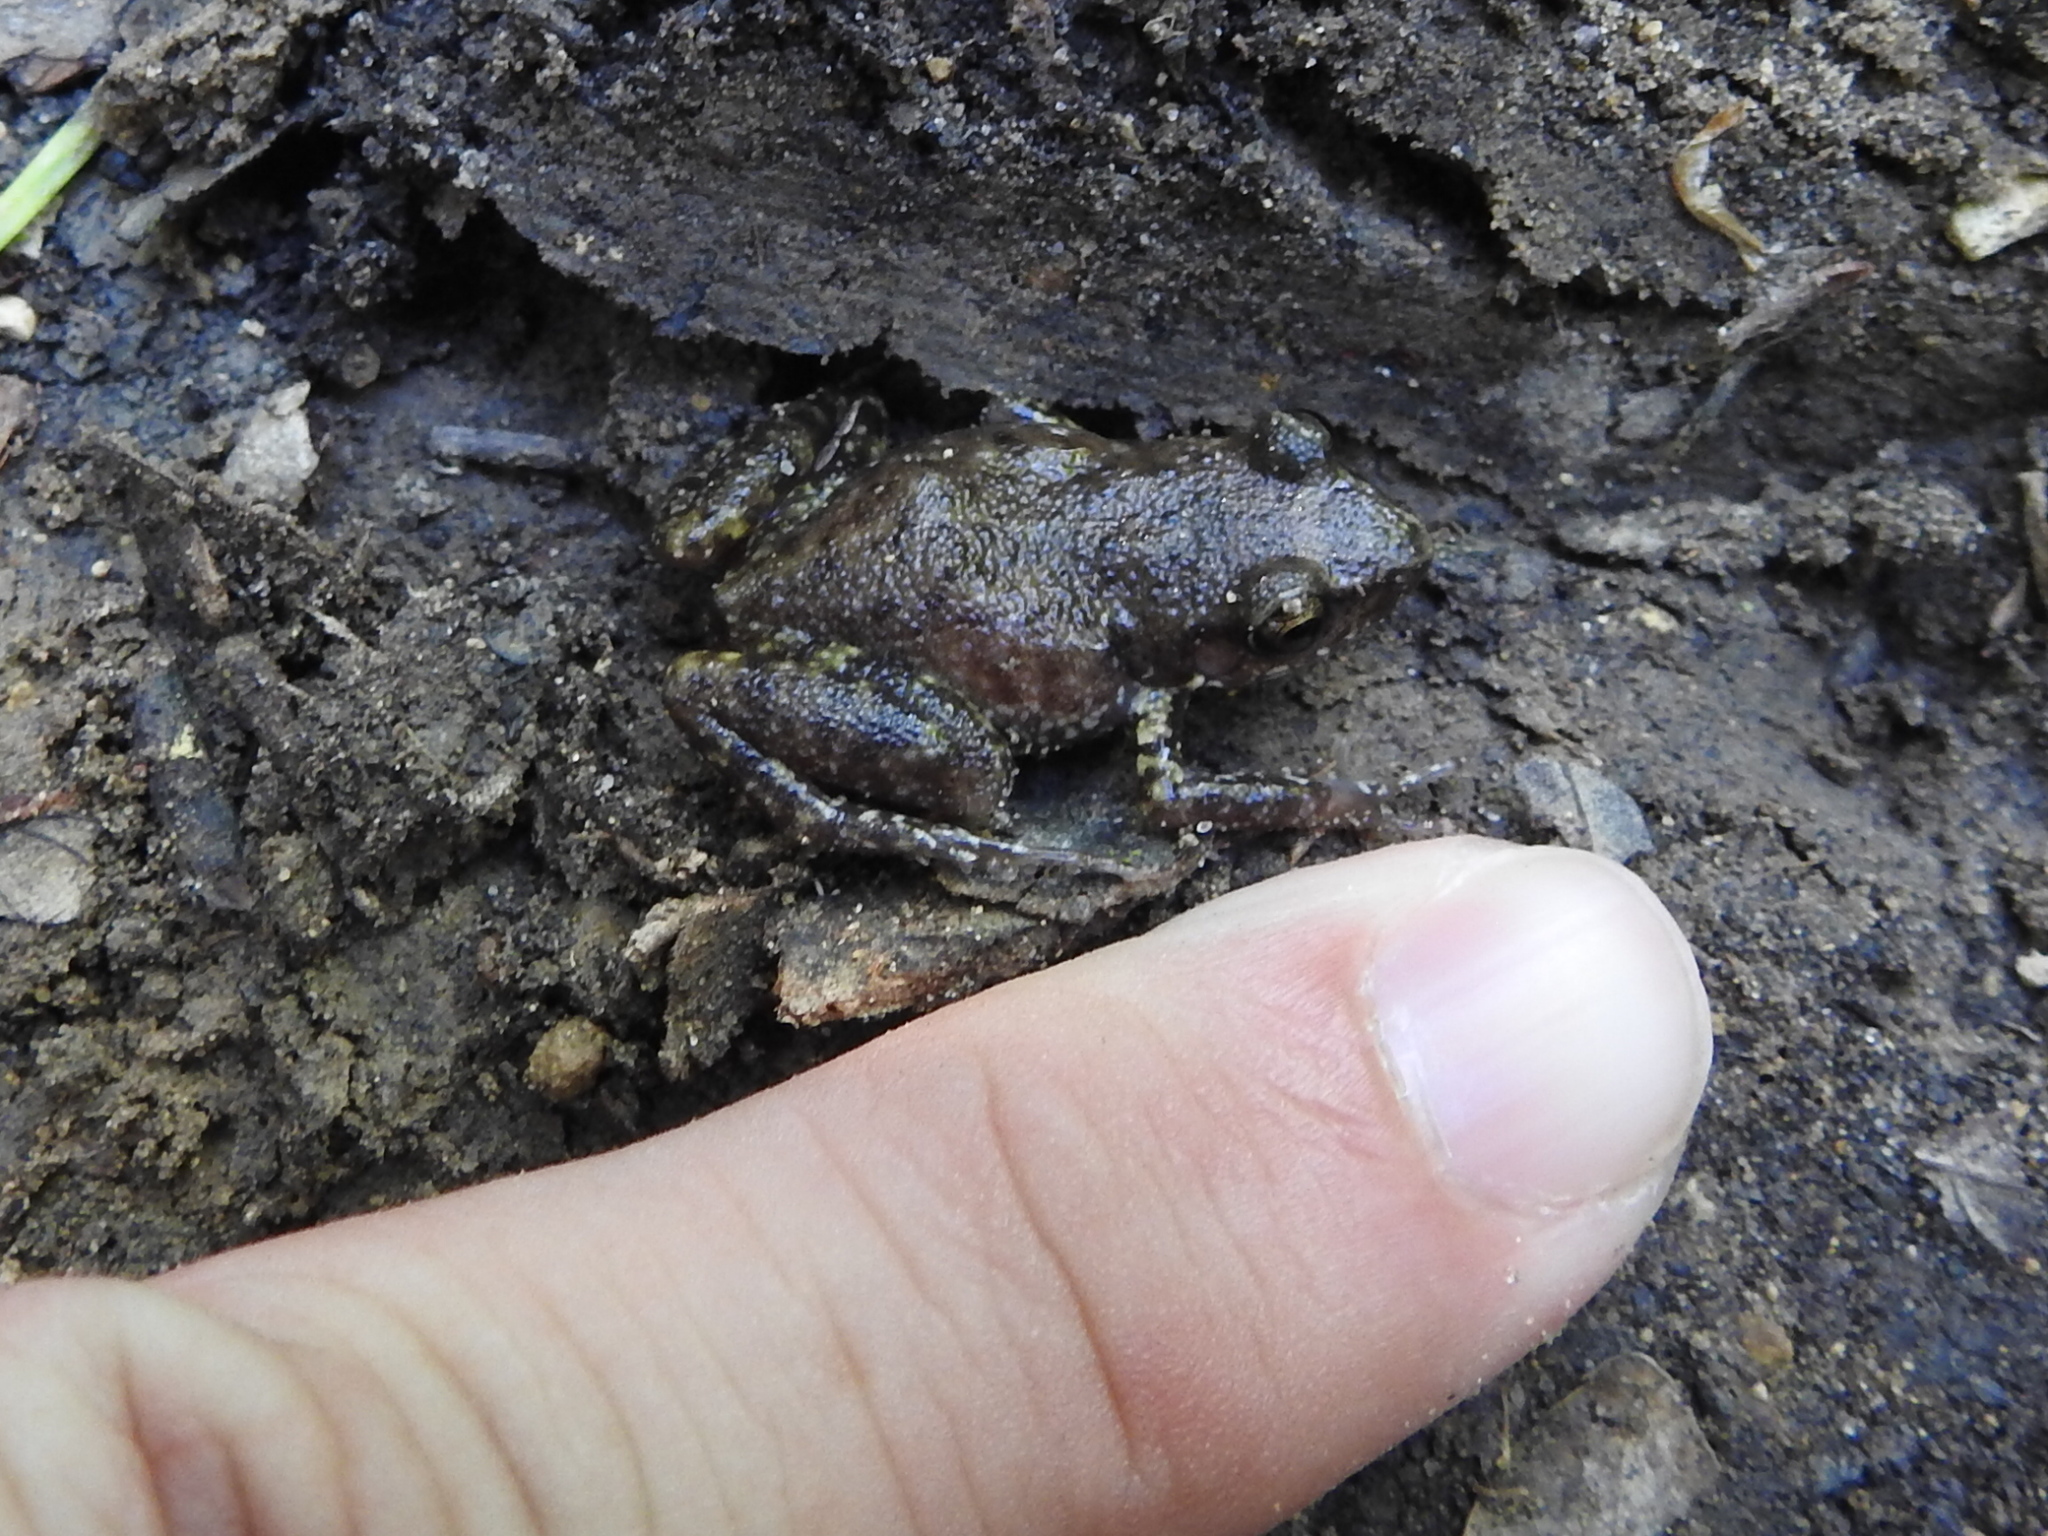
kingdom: Animalia
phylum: Chordata
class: Amphibia
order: Anura
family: Eleutherodactylidae
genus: Eleutherodactylus
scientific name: Eleutherodactylus campi
